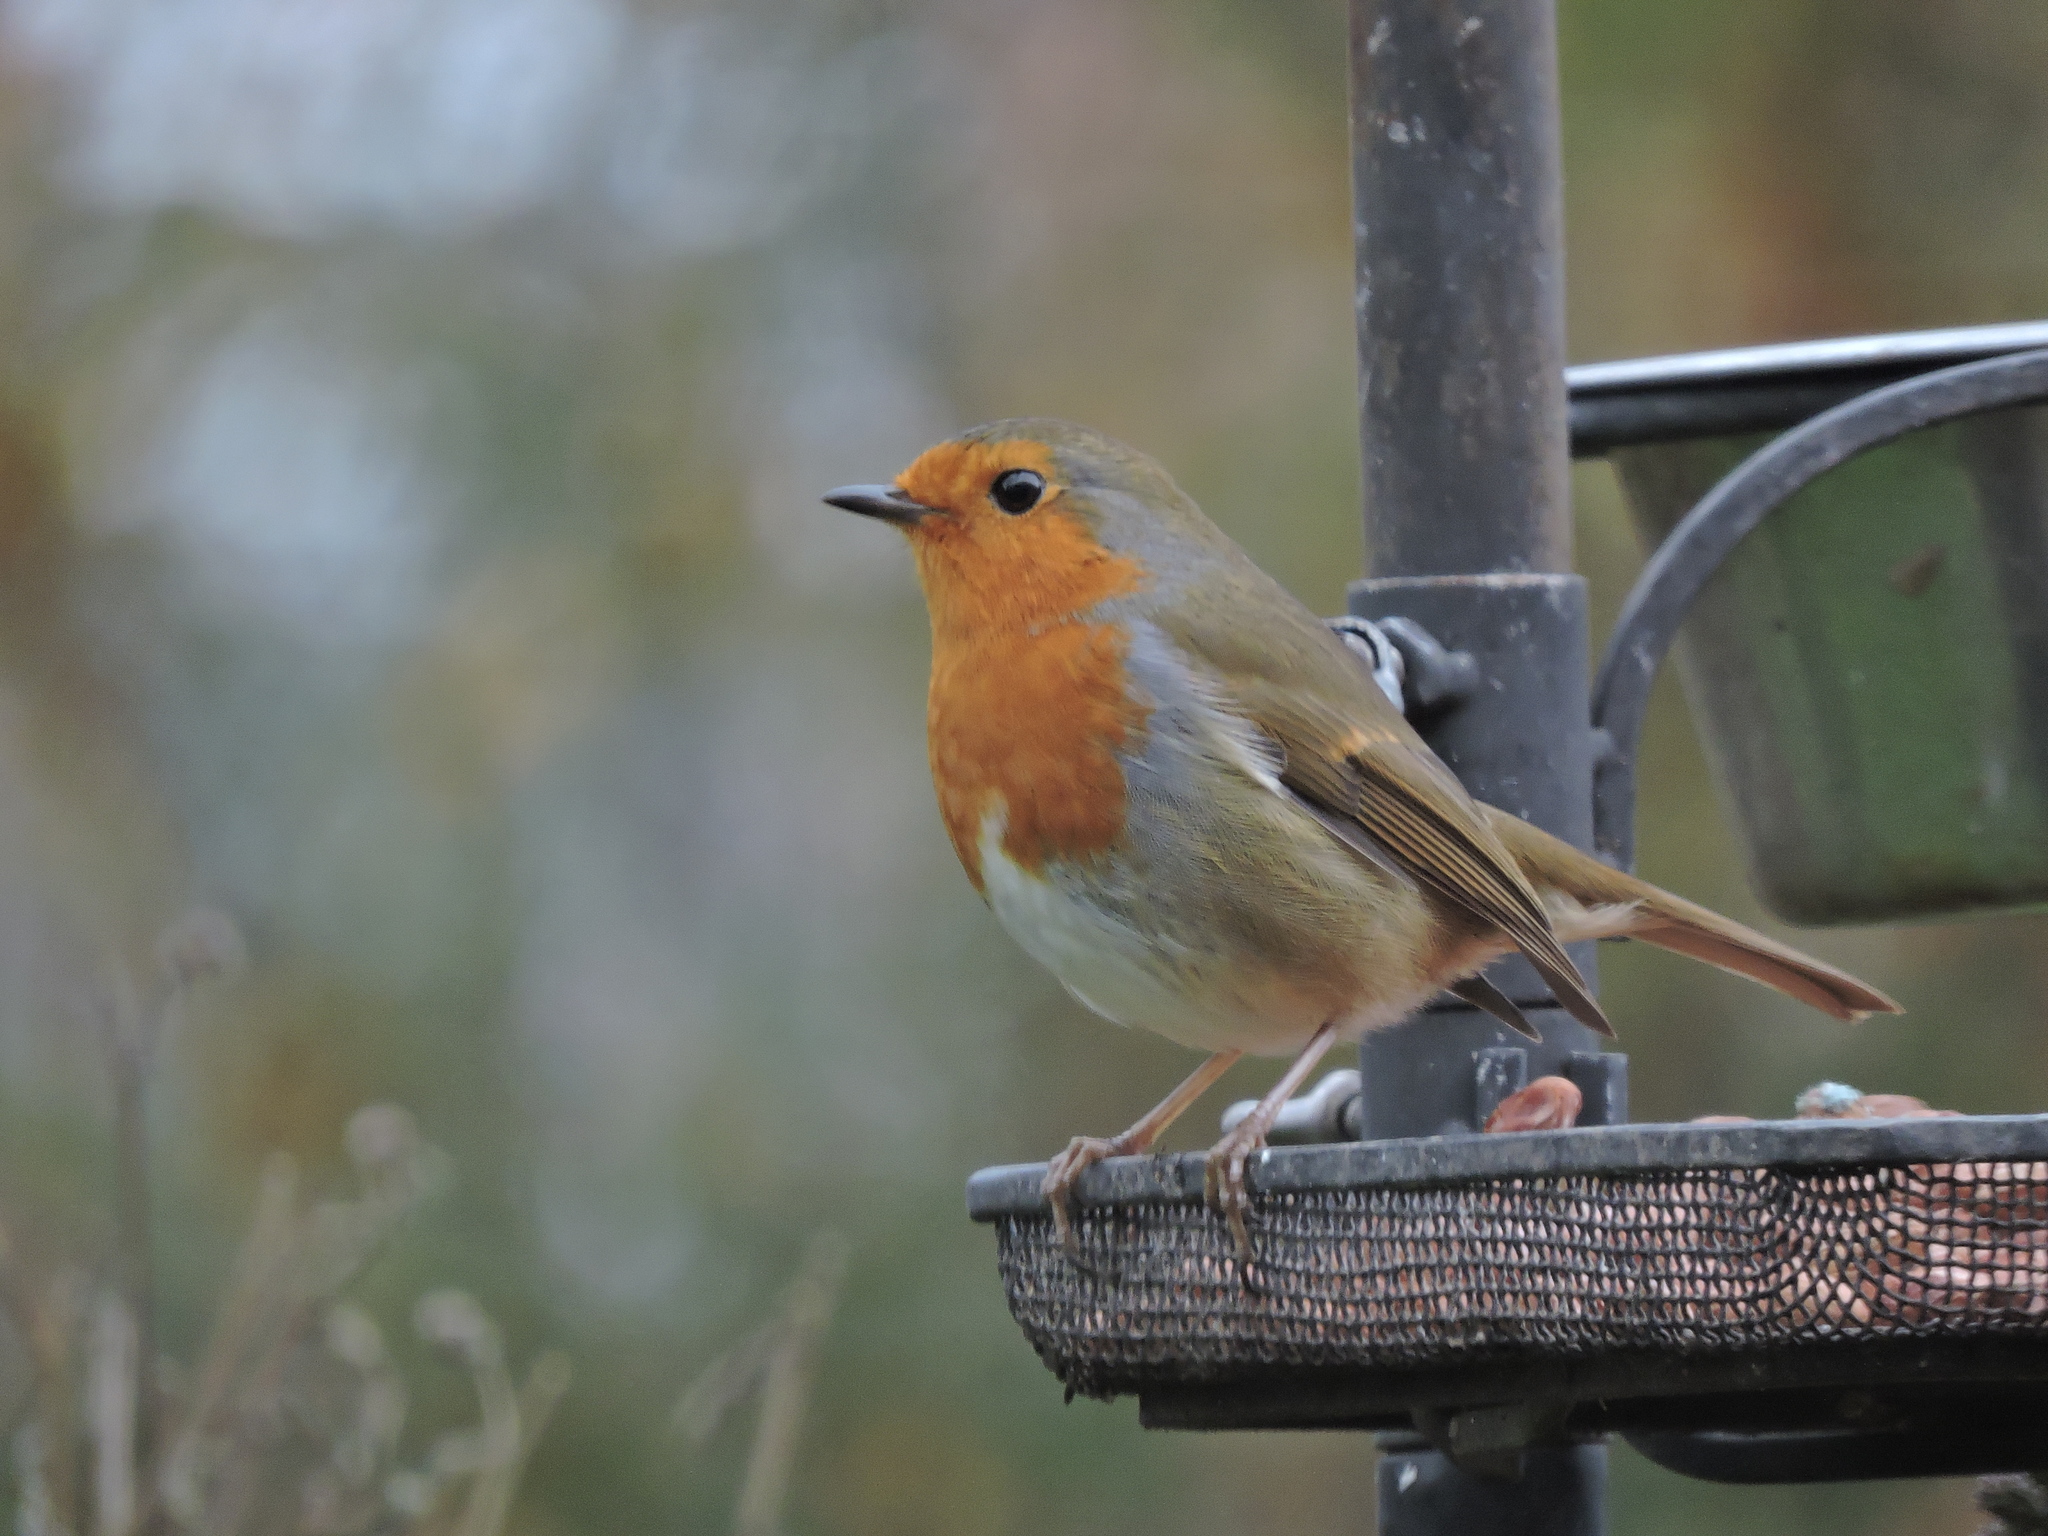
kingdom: Animalia
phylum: Chordata
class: Aves
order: Passeriformes
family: Muscicapidae
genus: Erithacus
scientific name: Erithacus rubecula
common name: European robin
